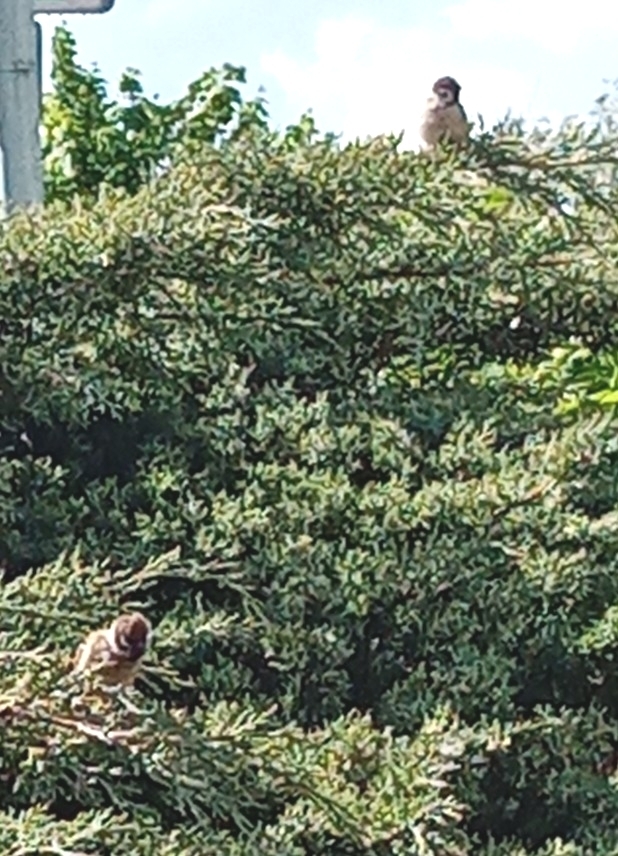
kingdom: Animalia
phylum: Chordata
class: Aves
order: Passeriformes
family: Passeridae
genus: Passer
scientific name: Passer montanus
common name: Eurasian tree sparrow
